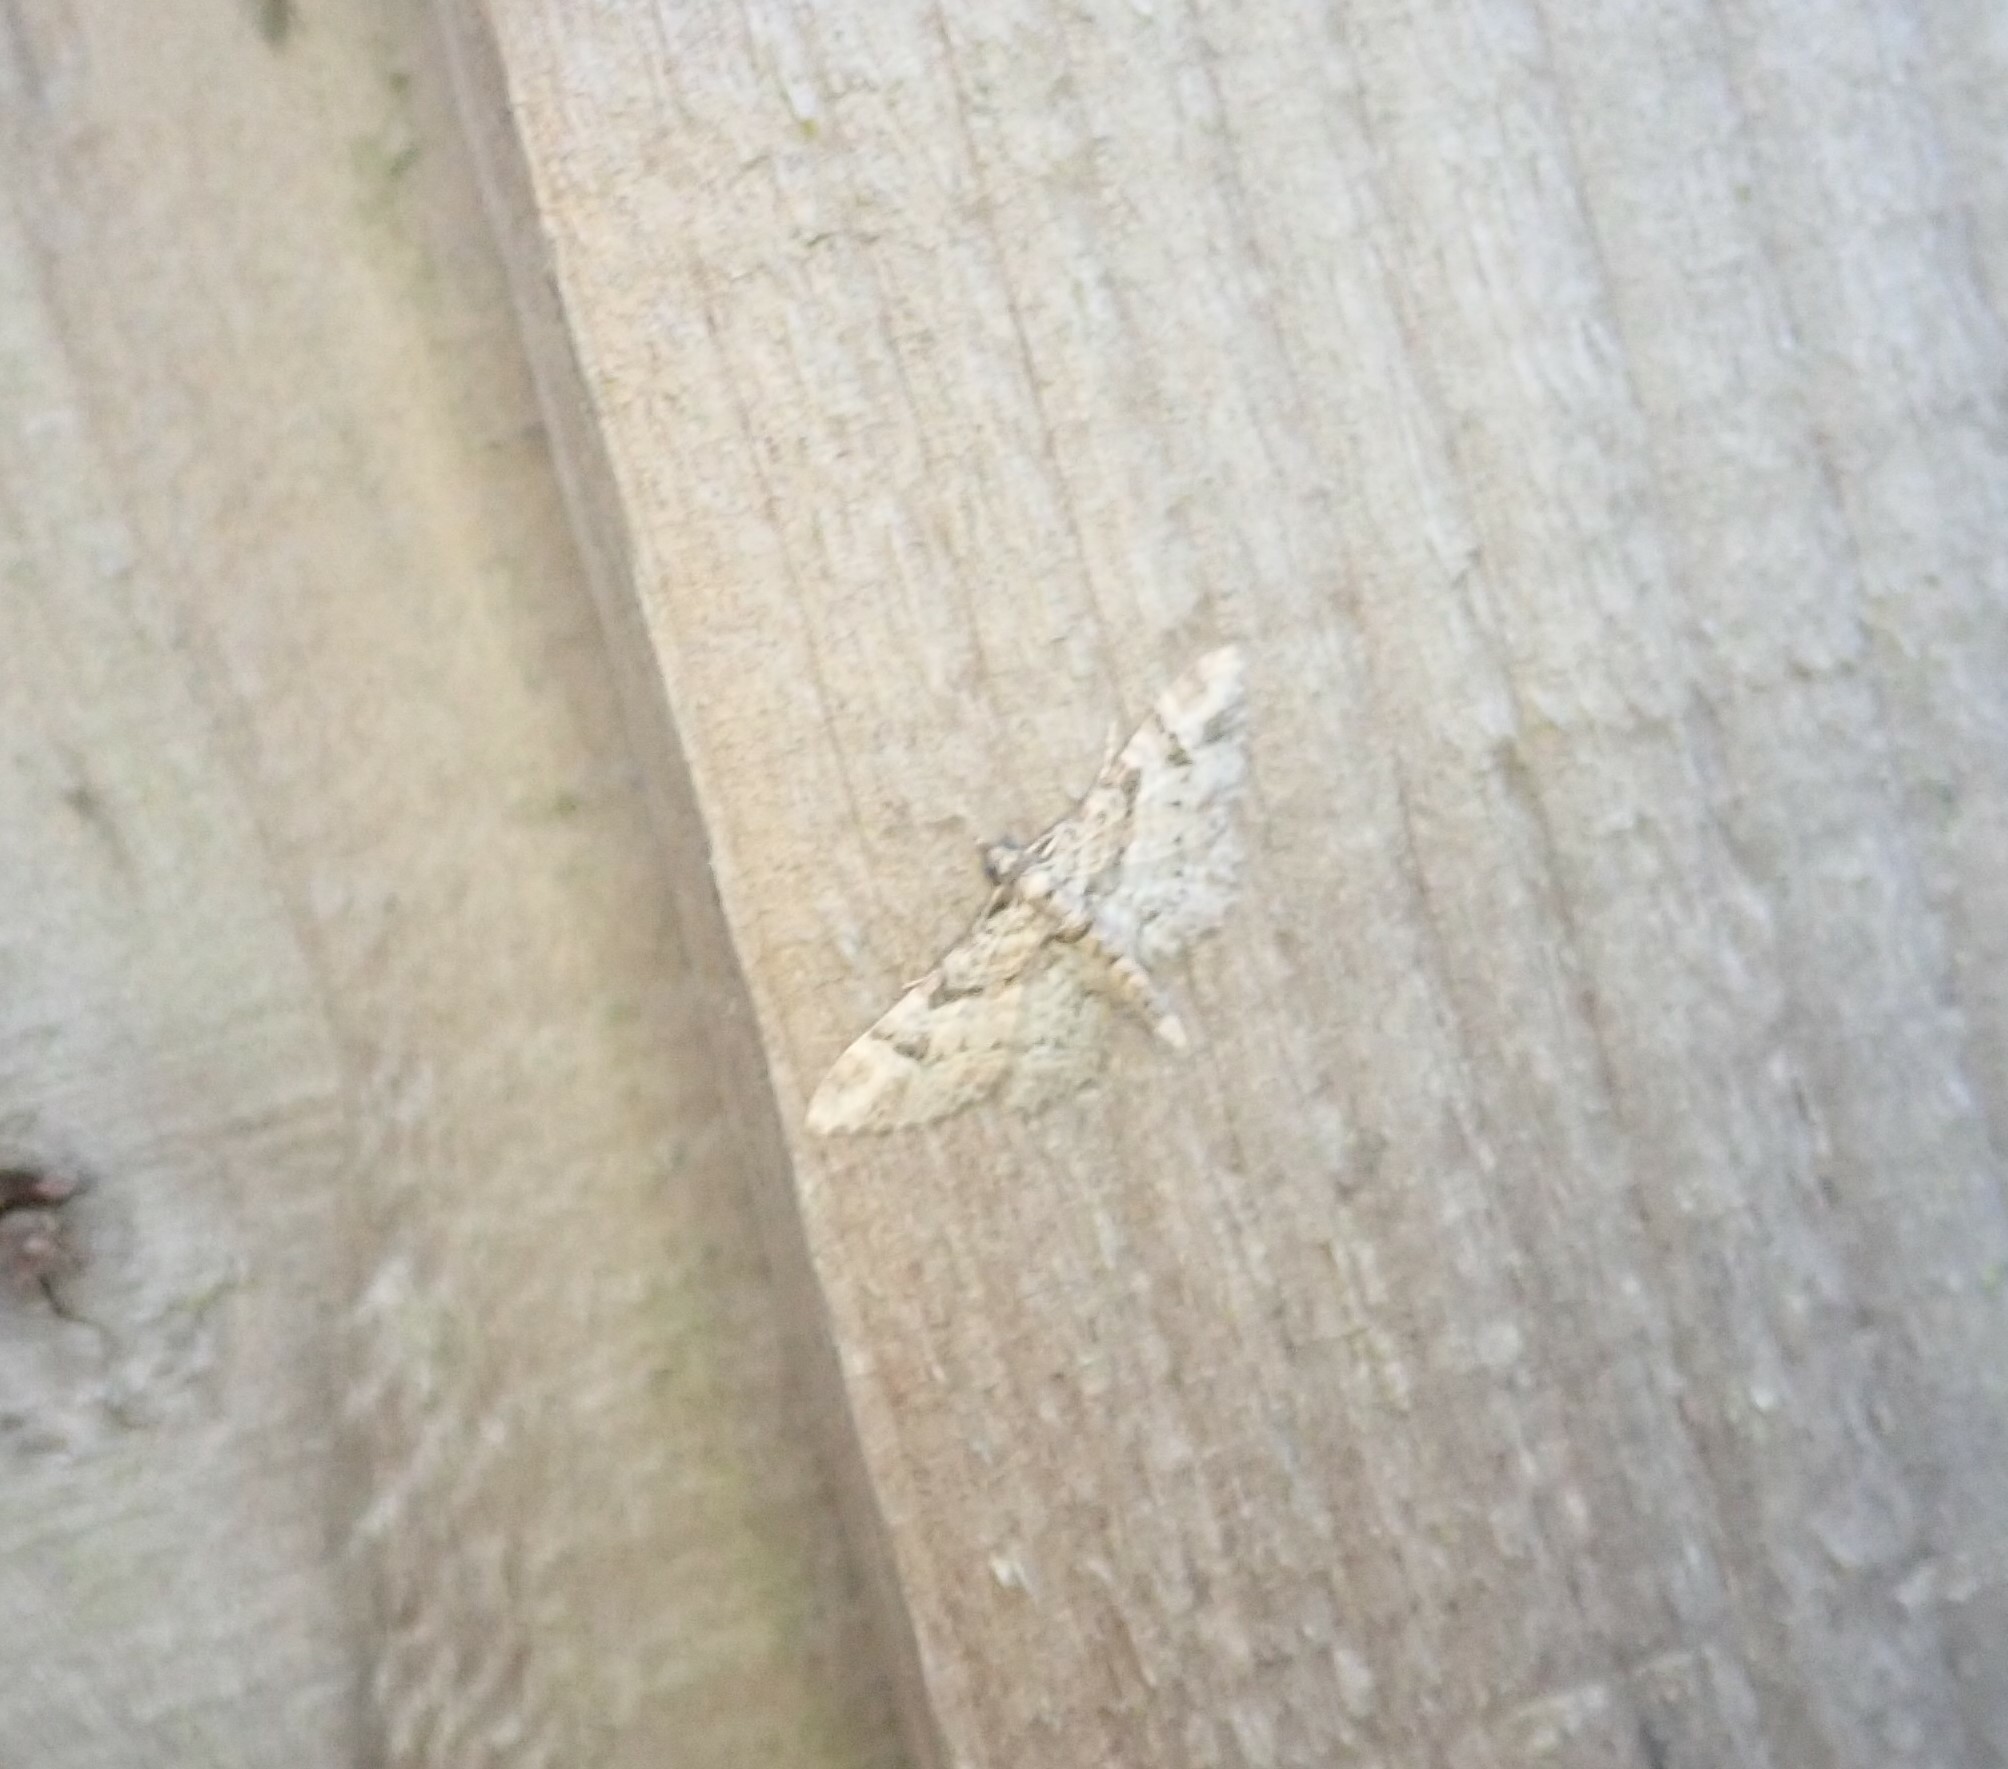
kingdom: Animalia
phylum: Arthropoda
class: Insecta
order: Lepidoptera
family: Geometridae
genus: Gymnoscelis
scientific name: Gymnoscelis rufifasciata
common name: Double-striped pug
